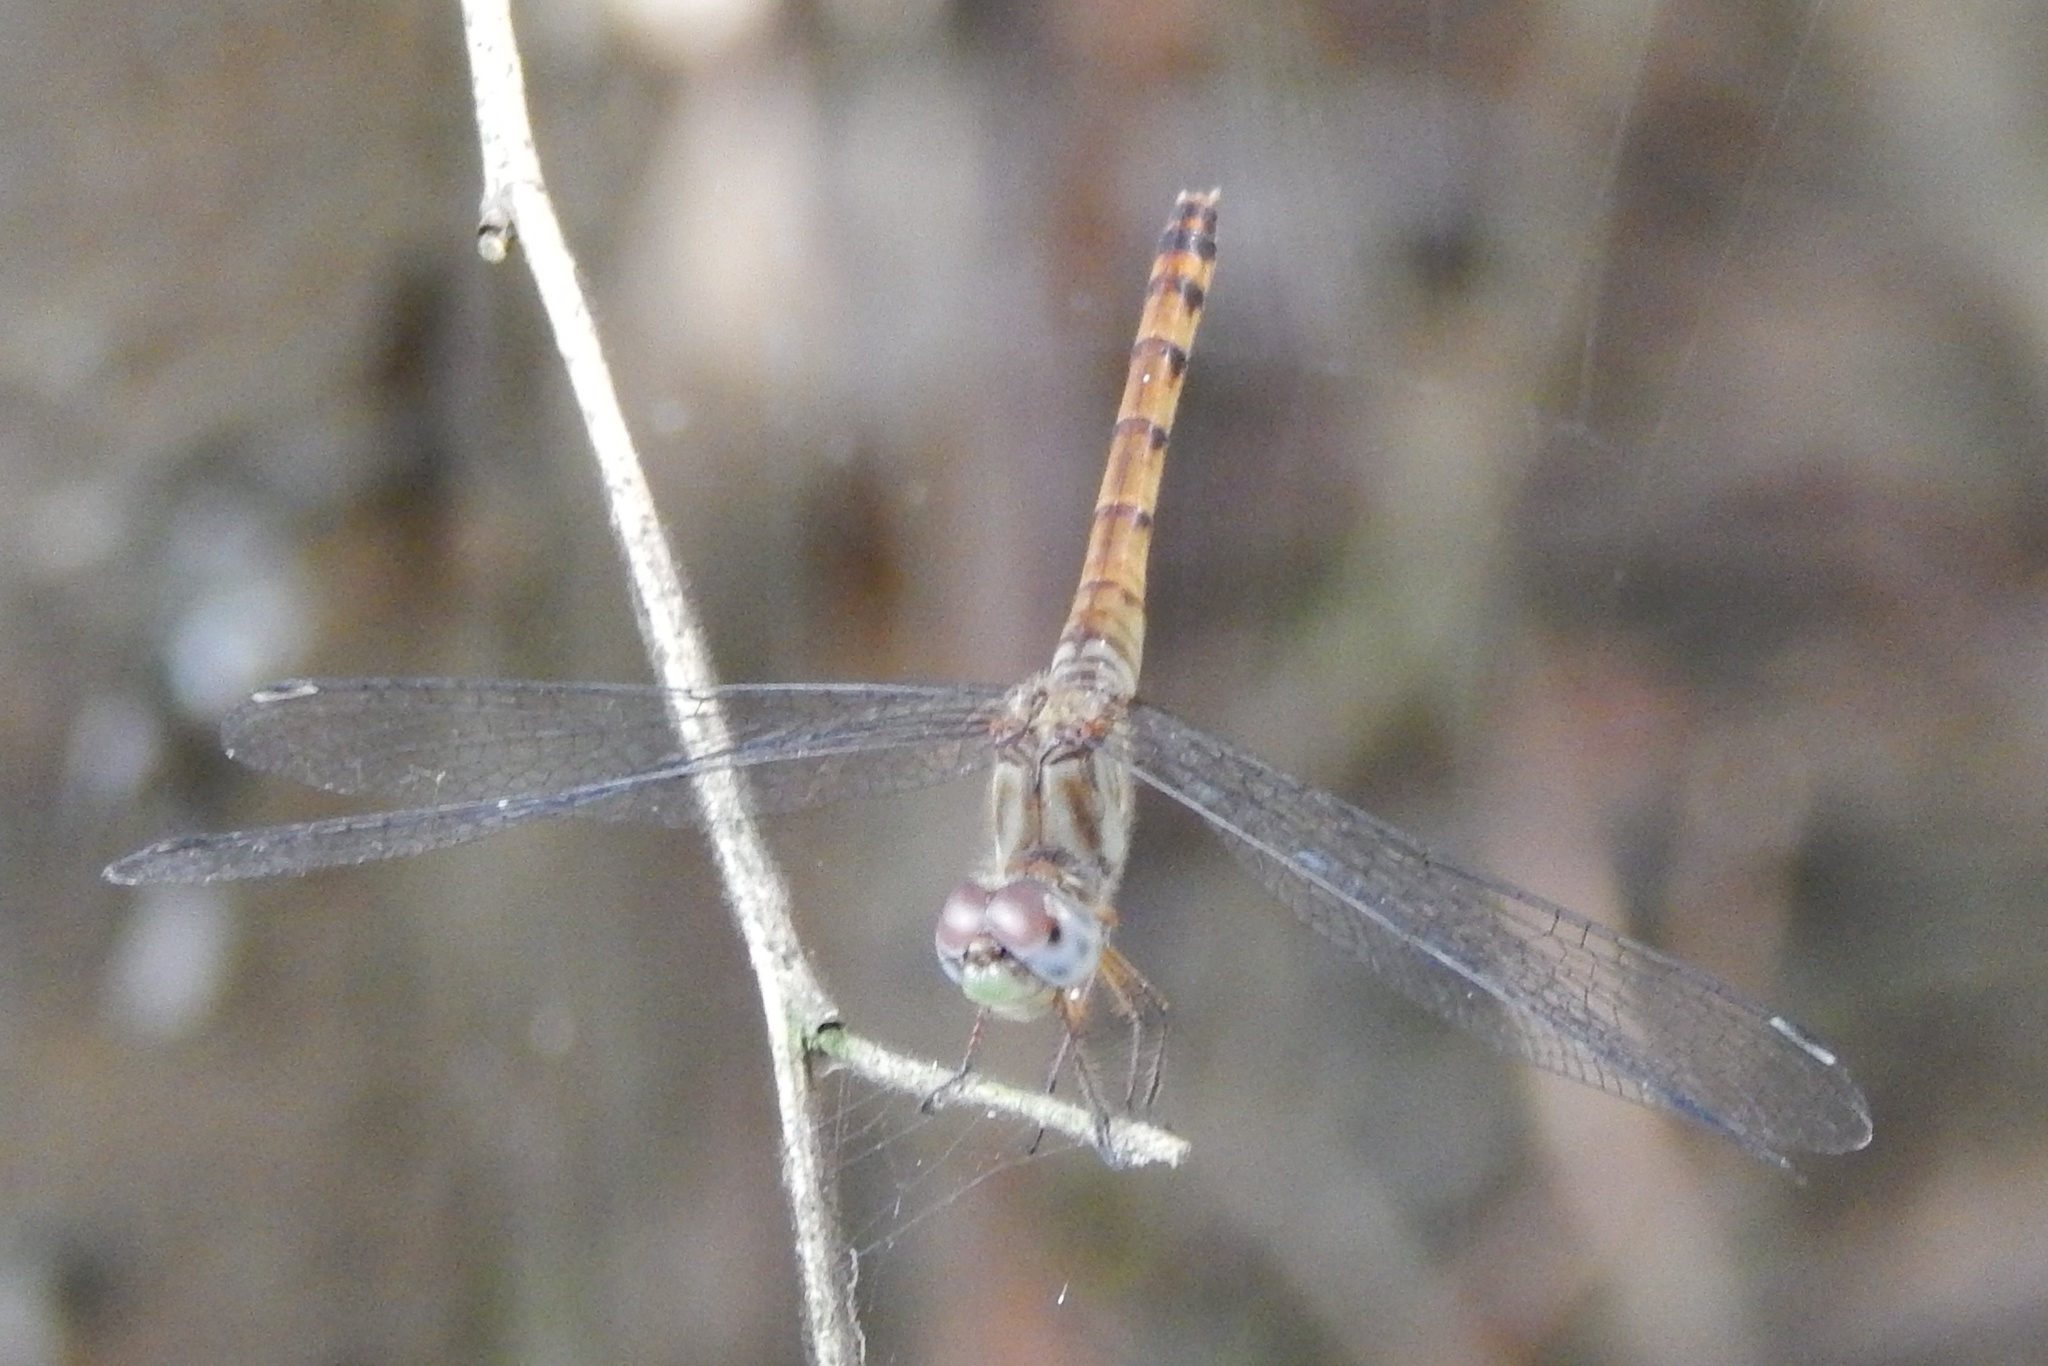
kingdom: Animalia
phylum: Arthropoda
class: Insecta
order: Odonata
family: Libellulidae
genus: Sympetrum
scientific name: Sympetrum ambiguum
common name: Blue-faced meadowhawk
